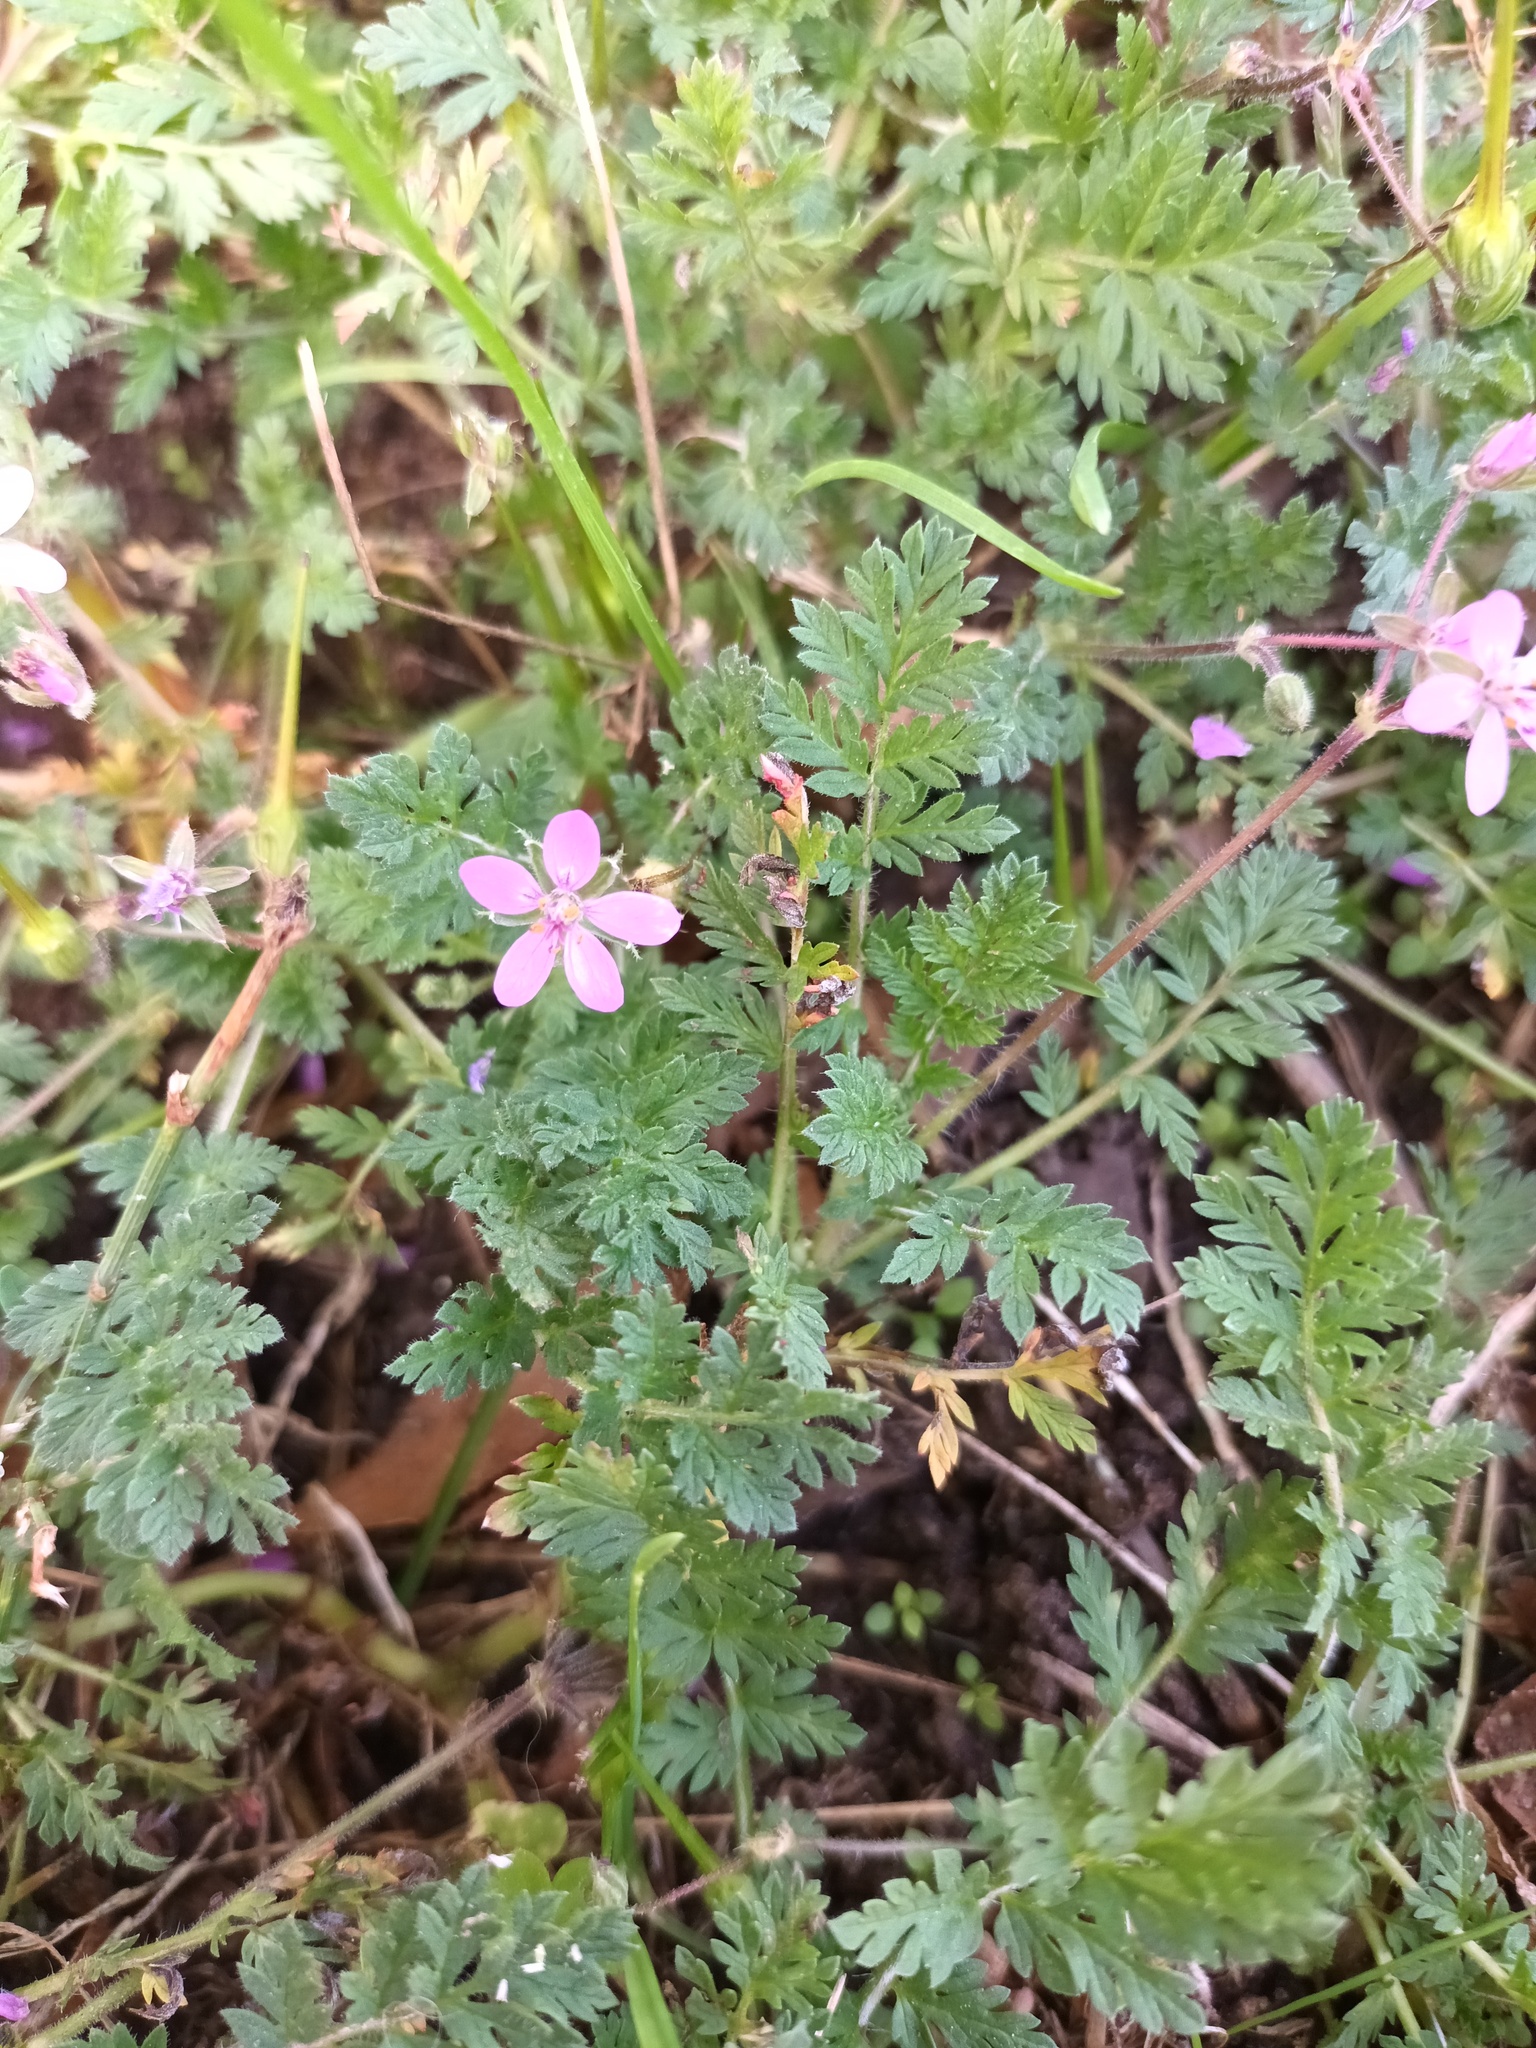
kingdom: Plantae
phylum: Tracheophyta
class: Magnoliopsida
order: Geraniales
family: Geraniaceae
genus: Erodium
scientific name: Erodium cicutarium
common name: Common stork's-bill
